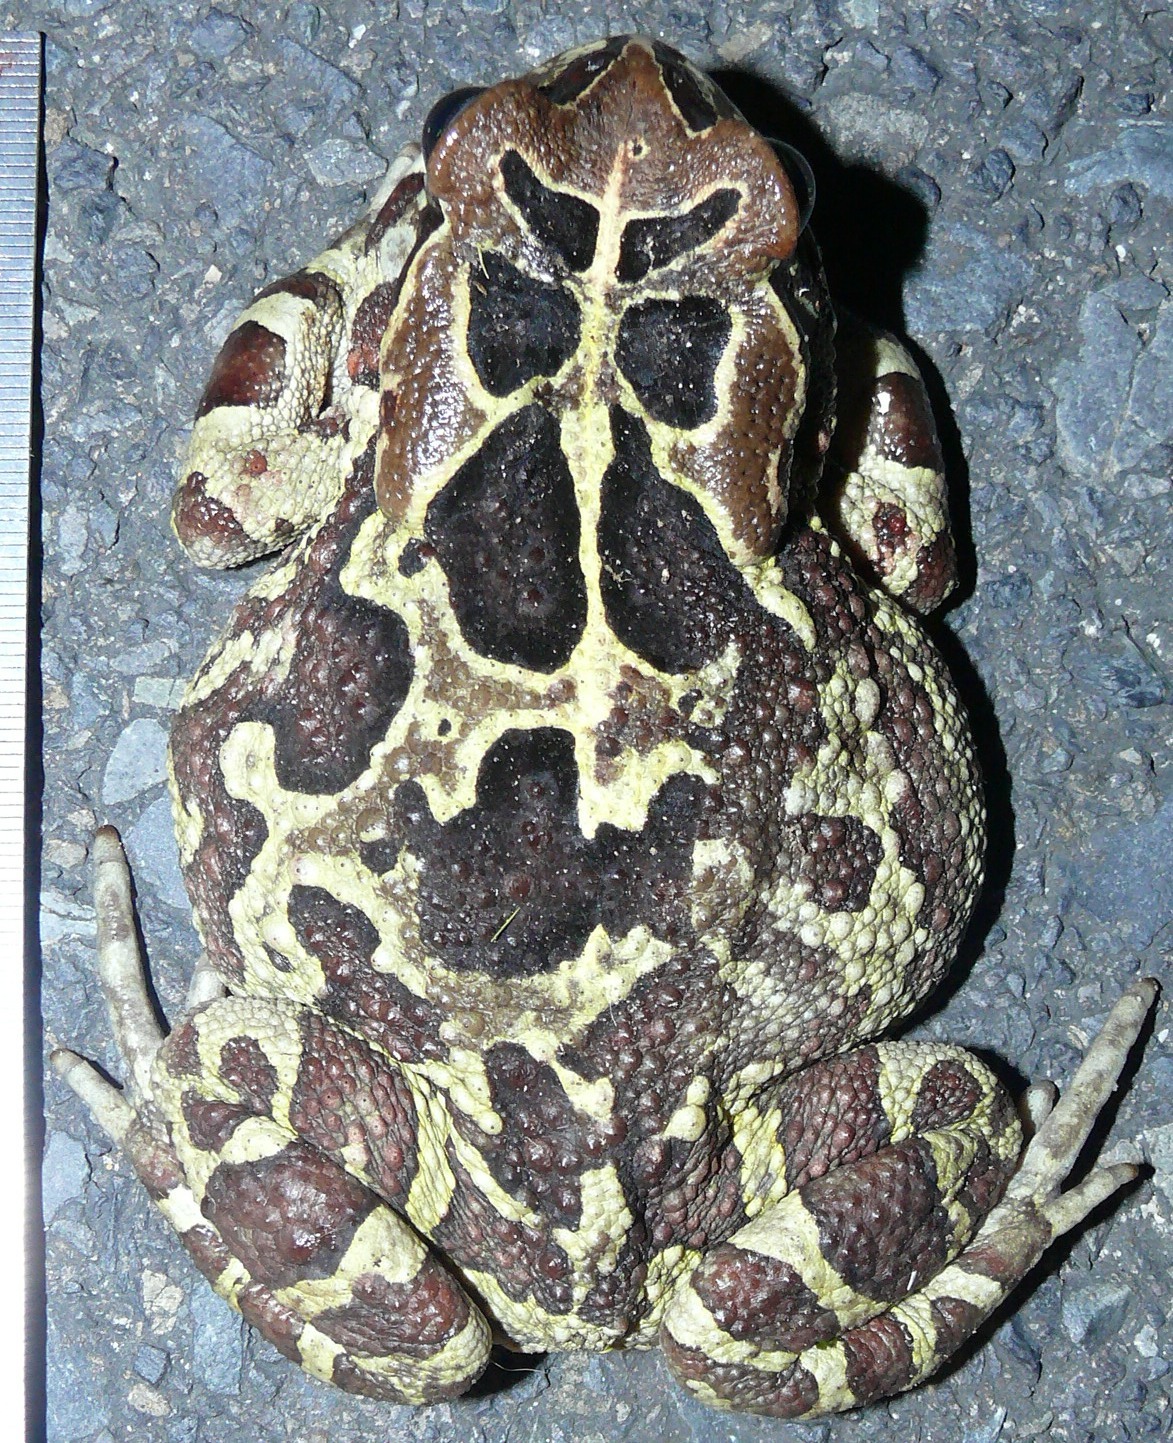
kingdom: Animalia
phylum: Chordata
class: Amphibia
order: Anura
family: Bufonidae
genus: Sclerophrys
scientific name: Sclerophrys pantherina
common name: Panther toad
